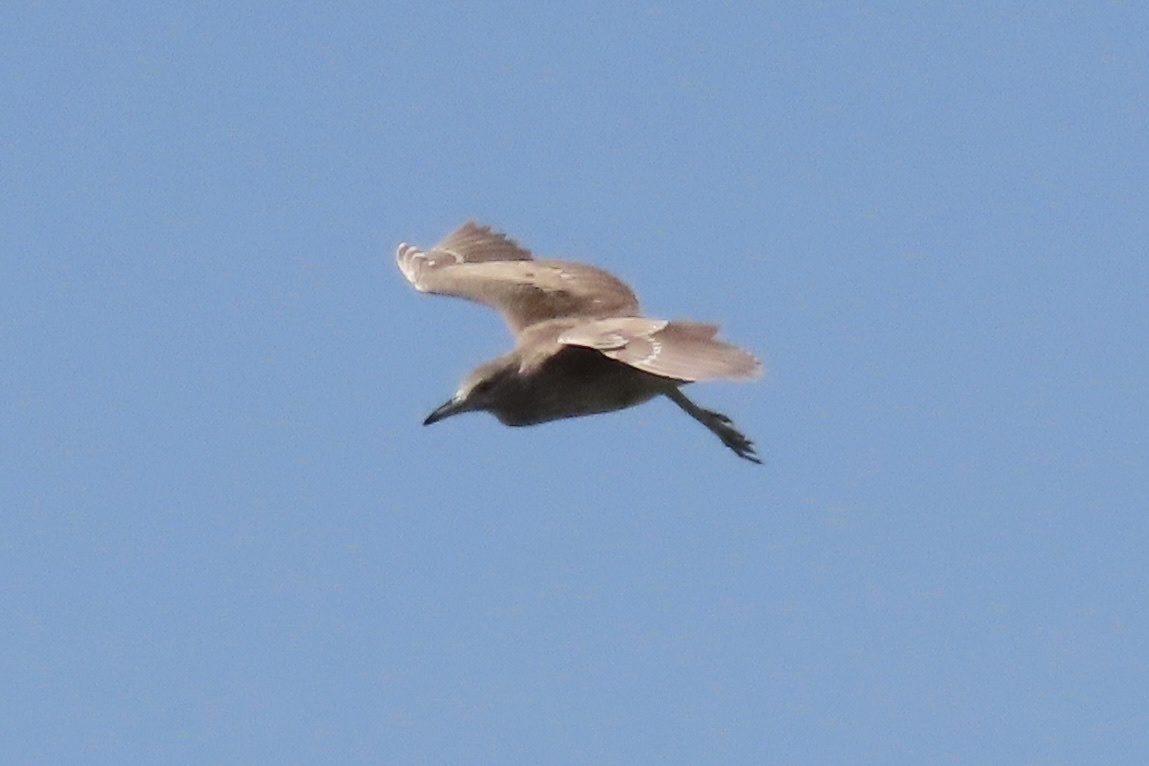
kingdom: Animalia
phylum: Chordata
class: Aves
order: Pelecaniformes
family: Ardeidae
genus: Nycticorax
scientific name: Nycticorax nycticorax
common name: Black-crowned night heron
